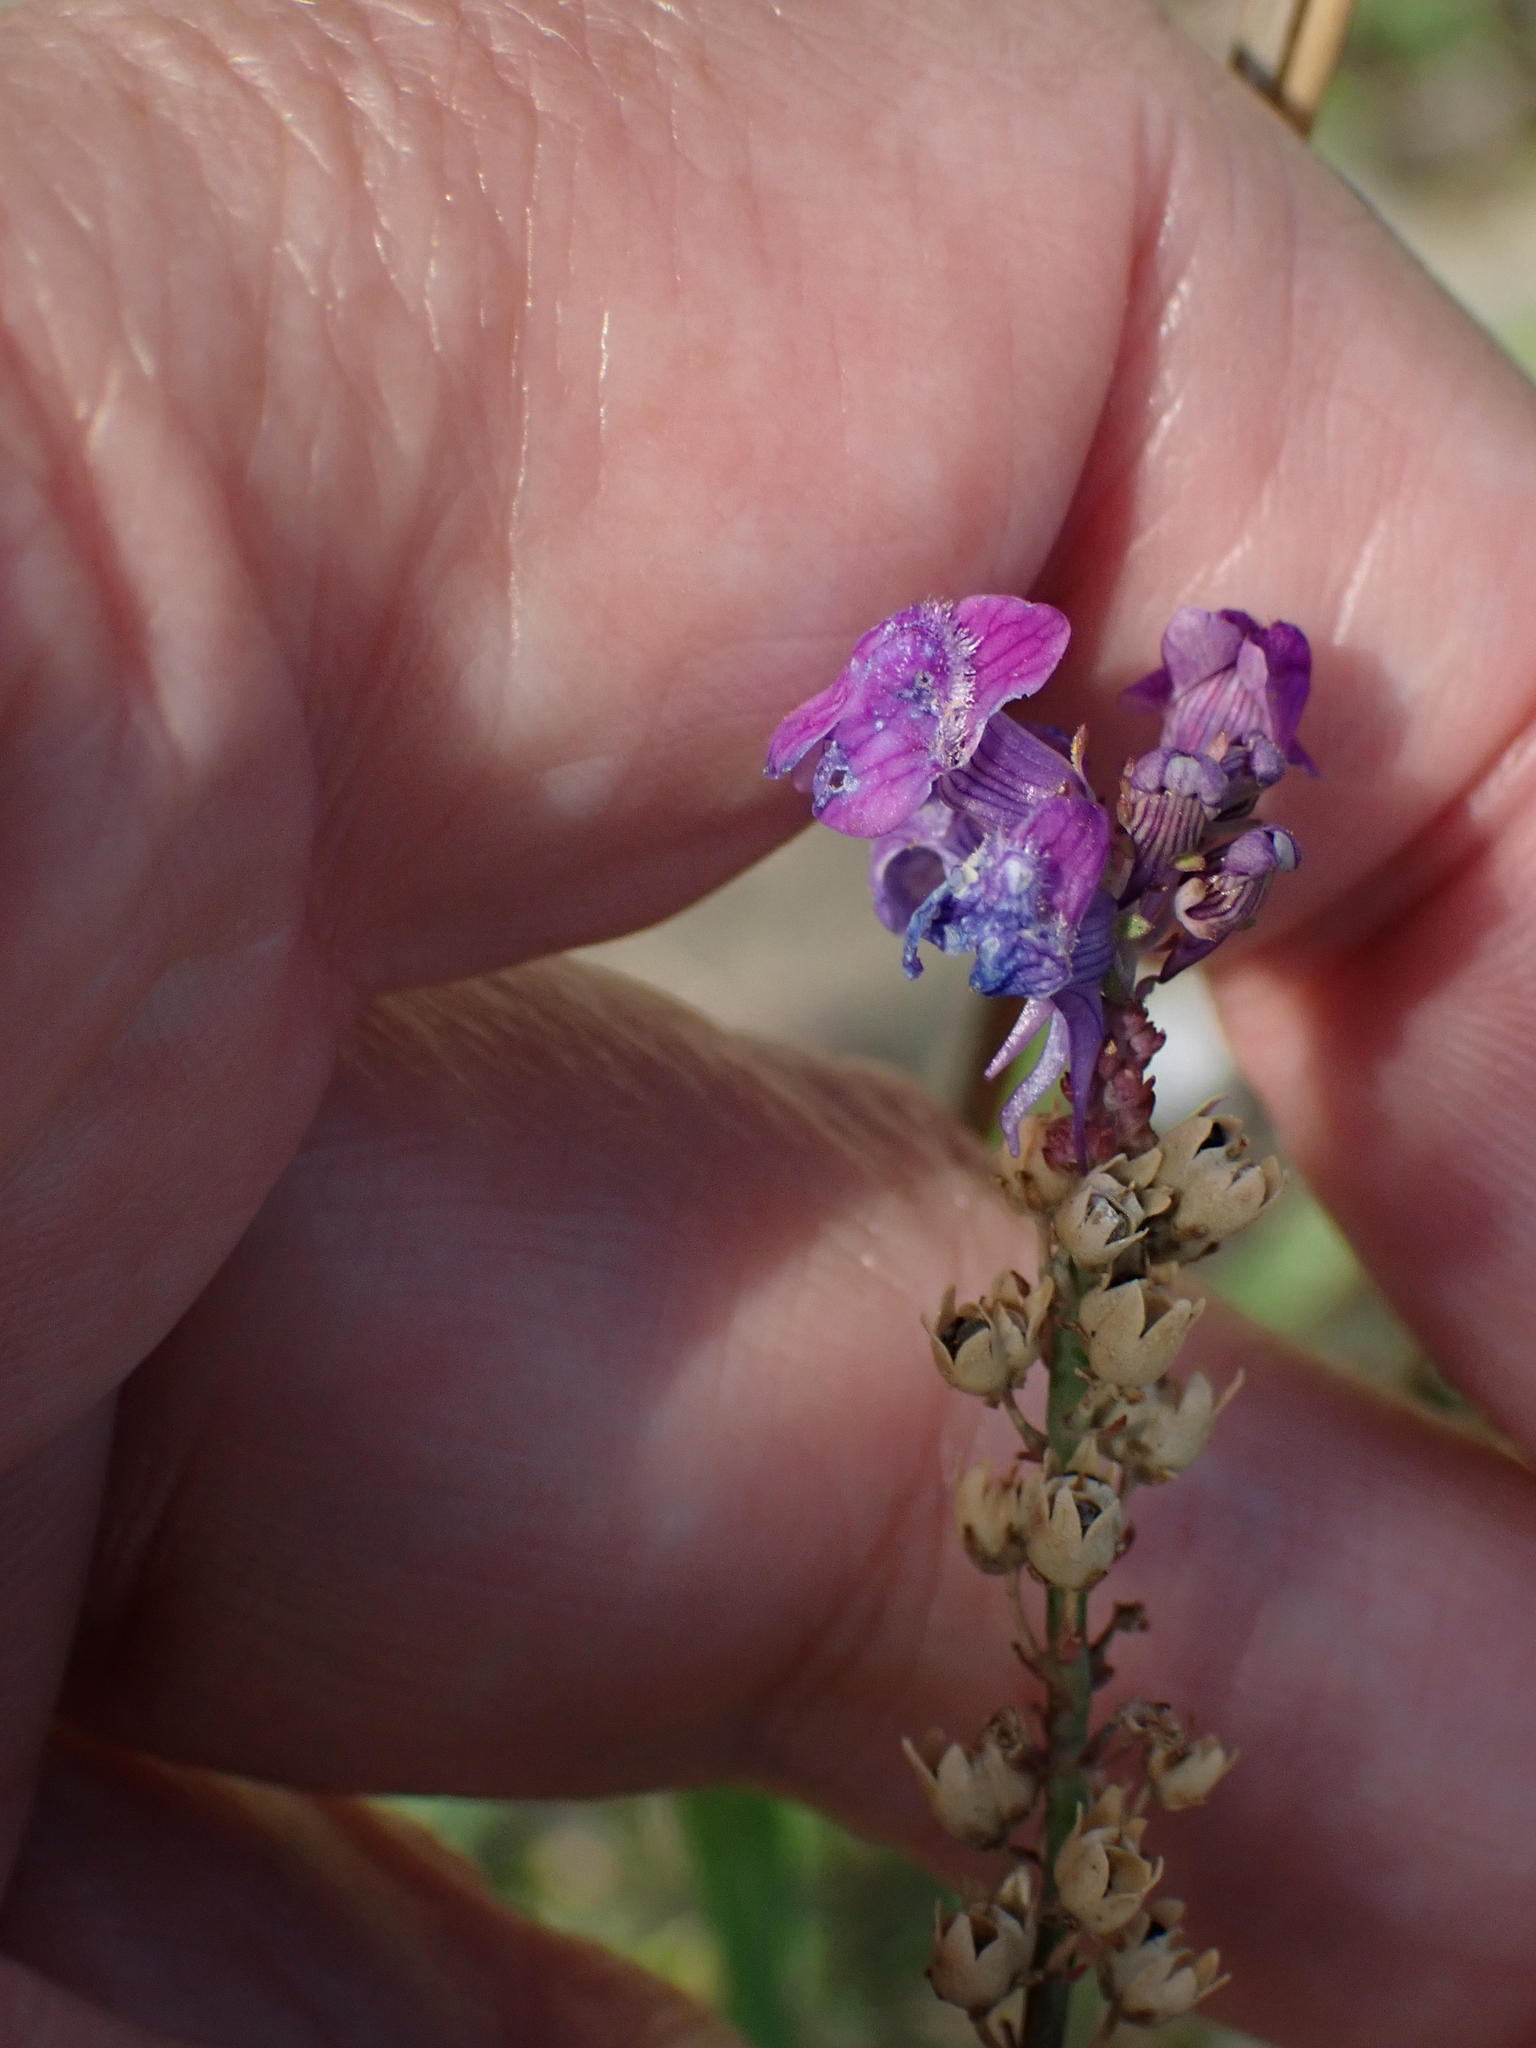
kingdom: Plantae
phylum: Tracheophyta
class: Magnoliopsida
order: Lamiales
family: Plantaginaceae
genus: Linaria
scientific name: Linaria purpurea
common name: Purple toadflax
